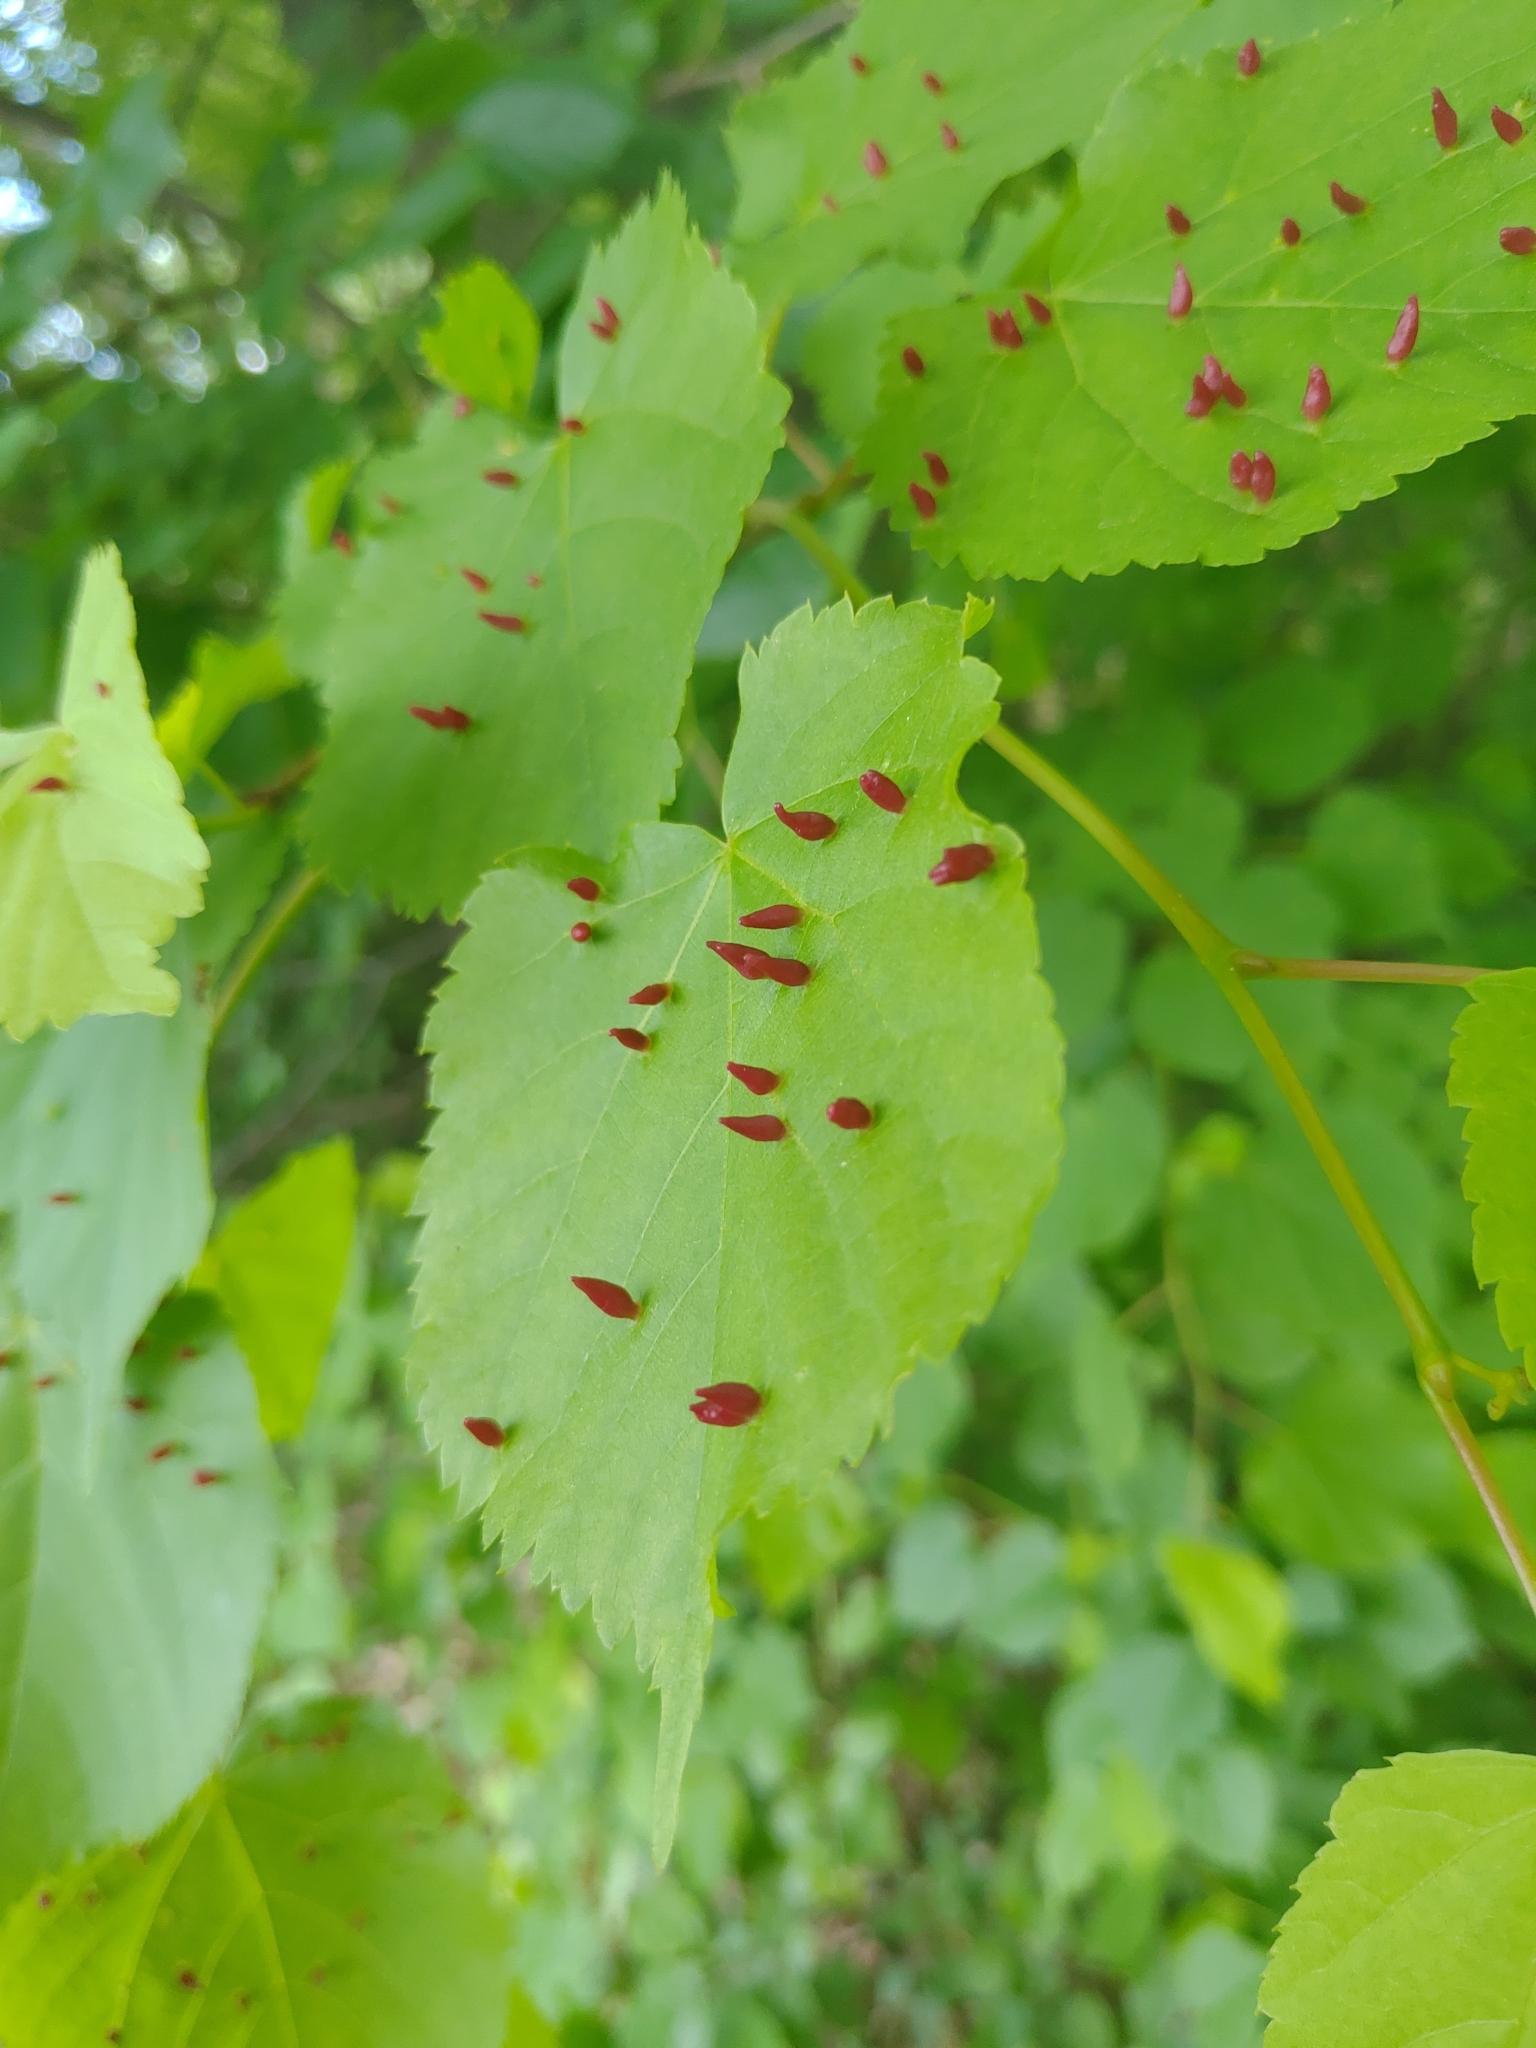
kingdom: Animalia
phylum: Arthropoda
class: Arachnida
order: Trombidiformes
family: Eriophyidae
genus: Eriophyes
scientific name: Eriophyes tiliae
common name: Red nail gall mite
